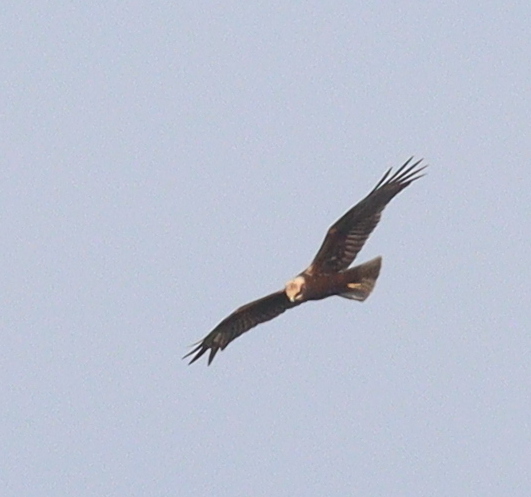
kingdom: Animalia
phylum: Chordata
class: Aves
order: Accipitriformes
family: Accipitridae
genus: Circus
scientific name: Circus aeruginosus
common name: Western marsh harrier
